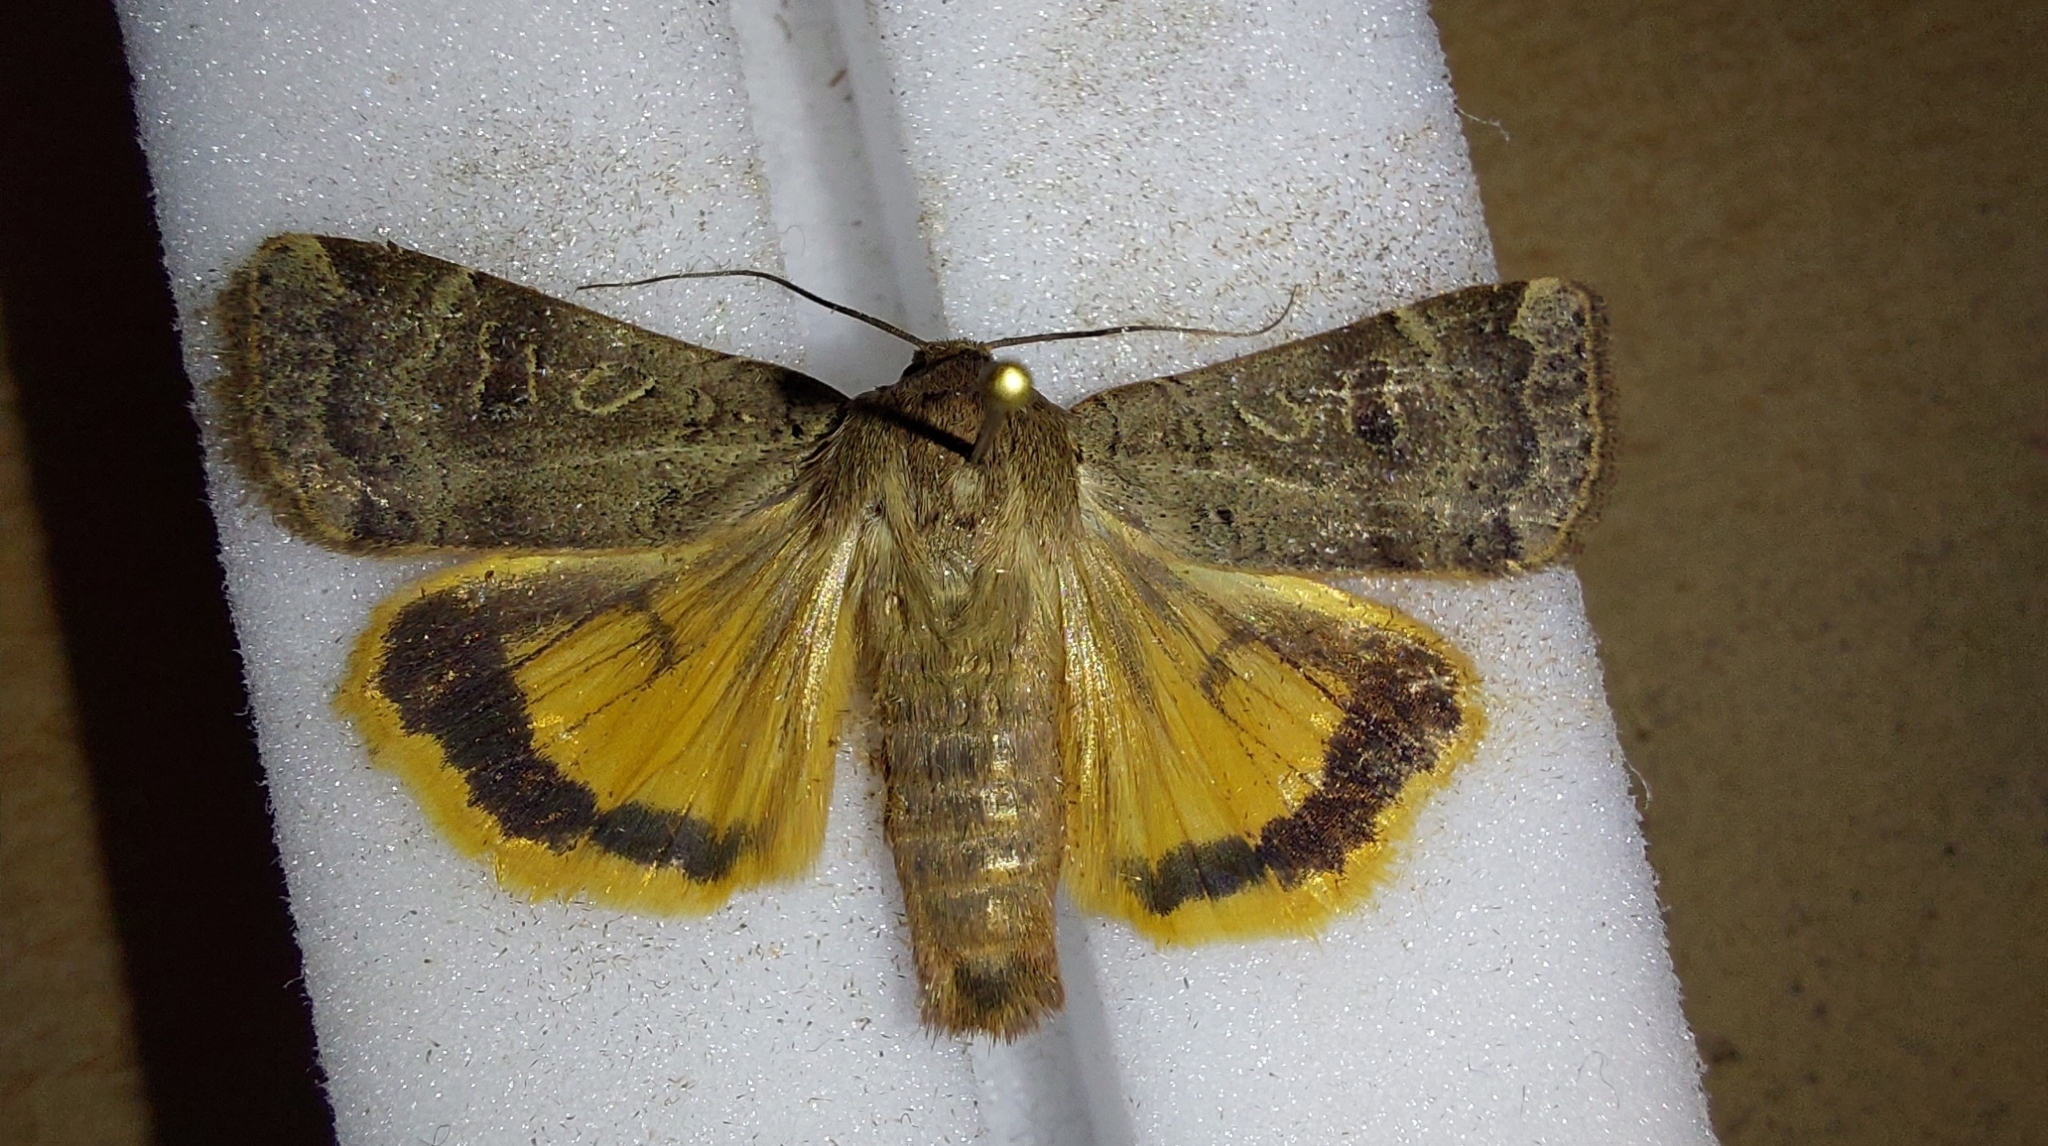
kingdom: Animalia
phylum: Arthropoda
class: Insecta
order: Lepidoptera
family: Noctuidae
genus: Noctua
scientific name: Noctua comes
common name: Lesser yellow underwing
